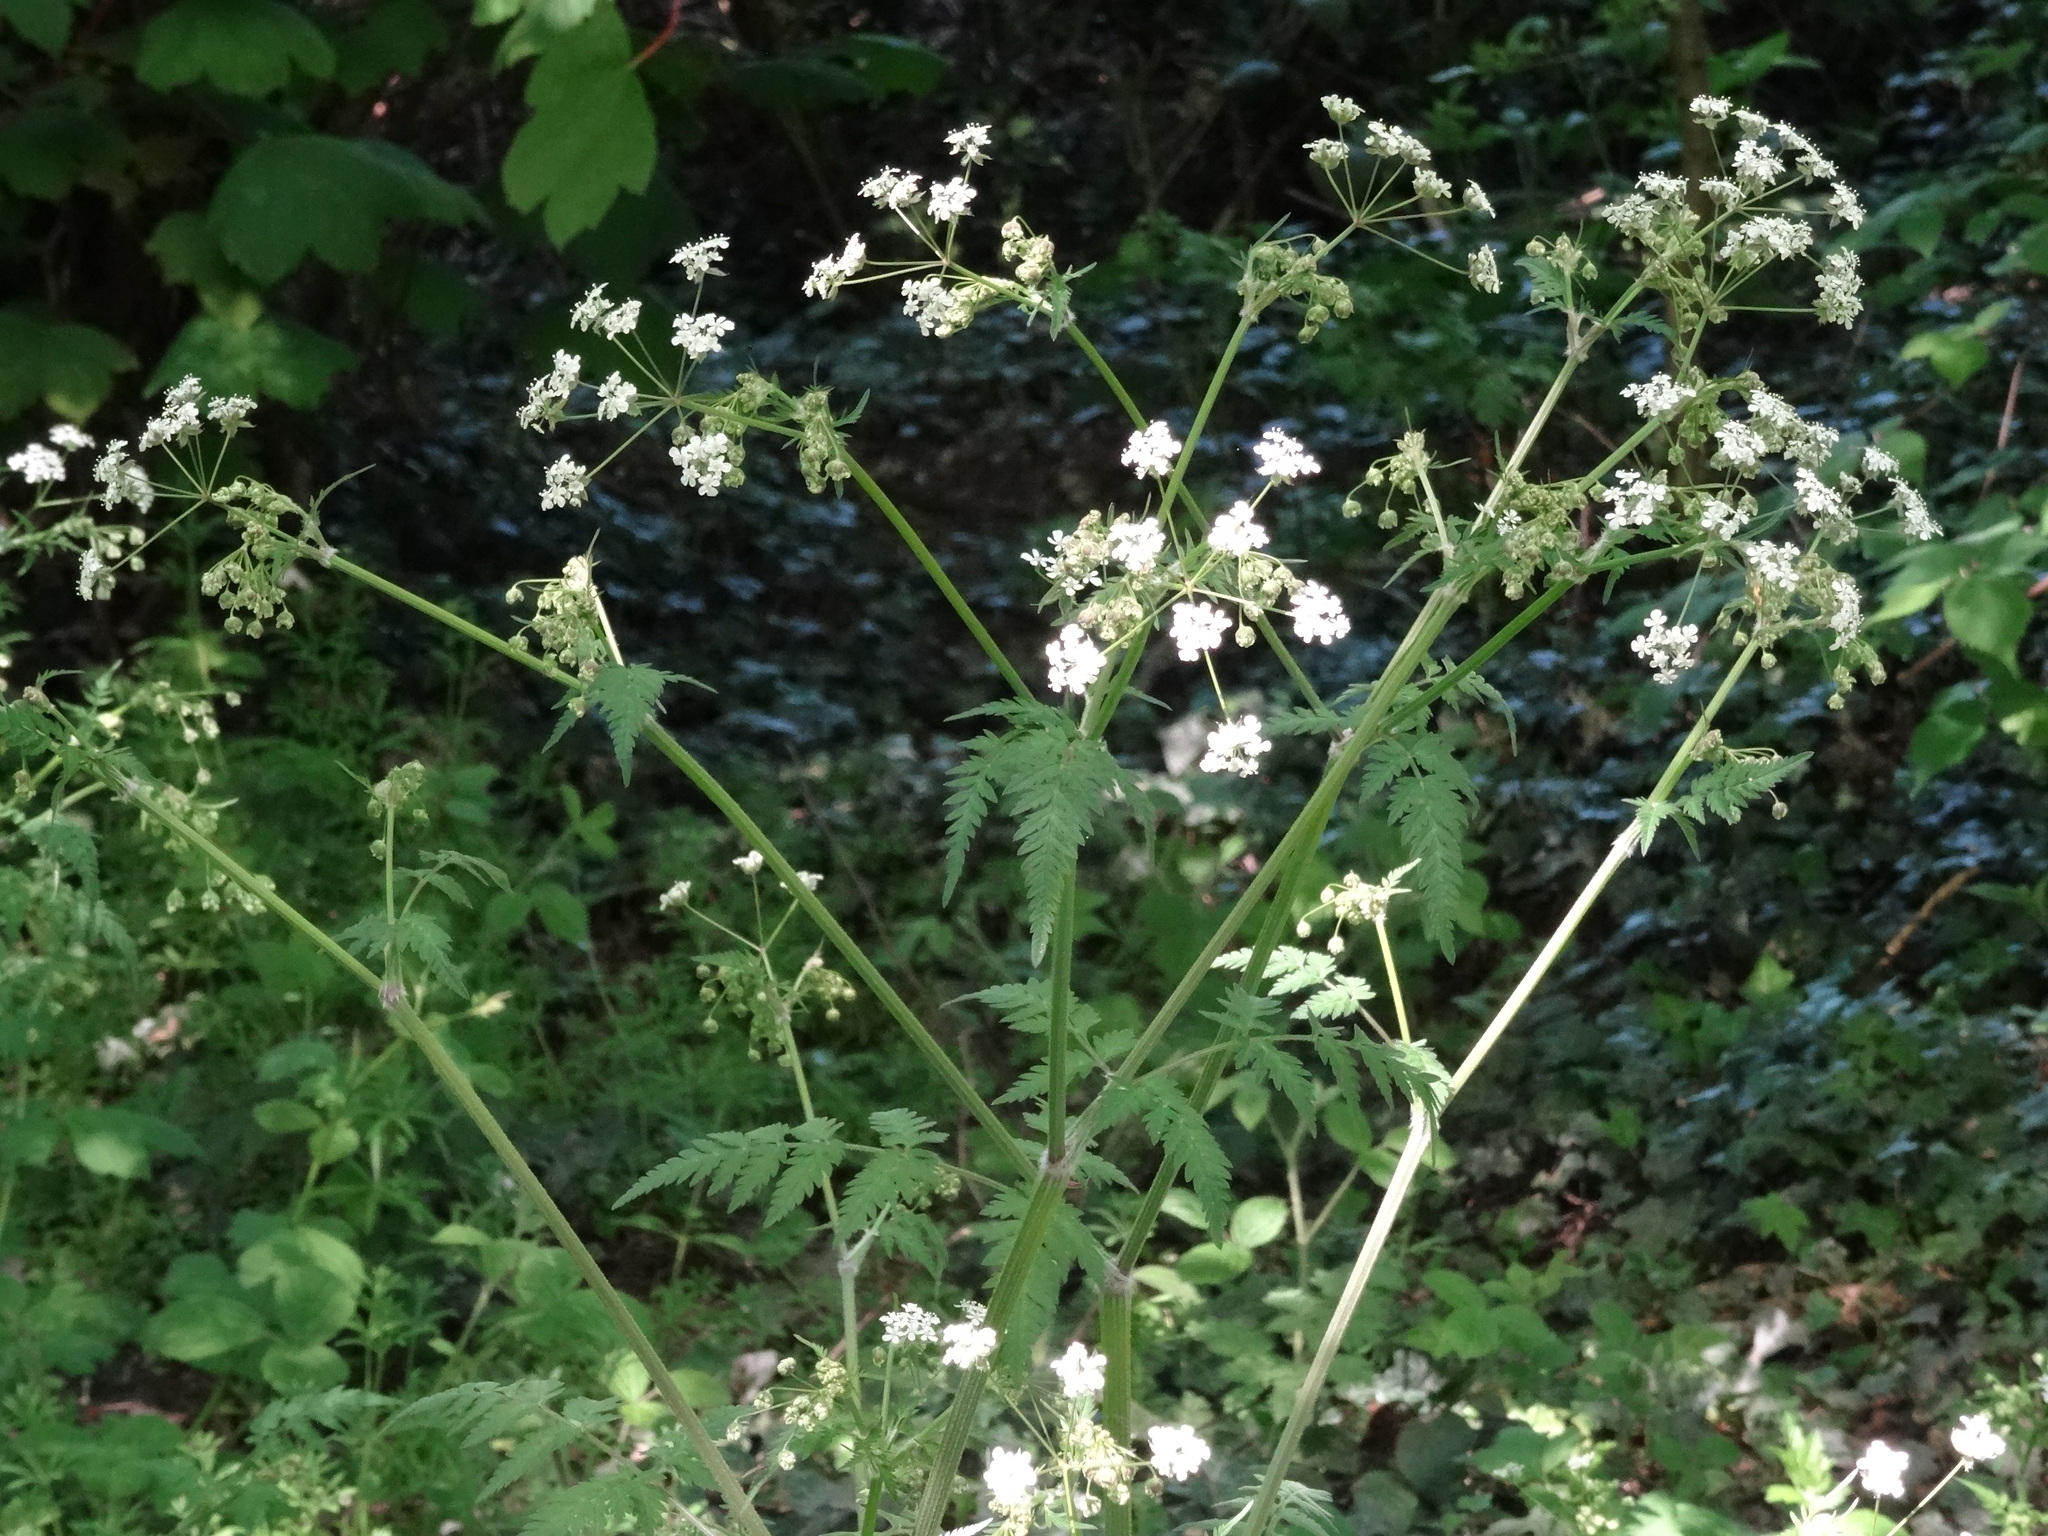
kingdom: Plantae
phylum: Tracheophyta
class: Magnoliopsida
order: Apiales
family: Apiaceae
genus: Anthriscus
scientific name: Anthriscus sylvestris
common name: Cow parsley
